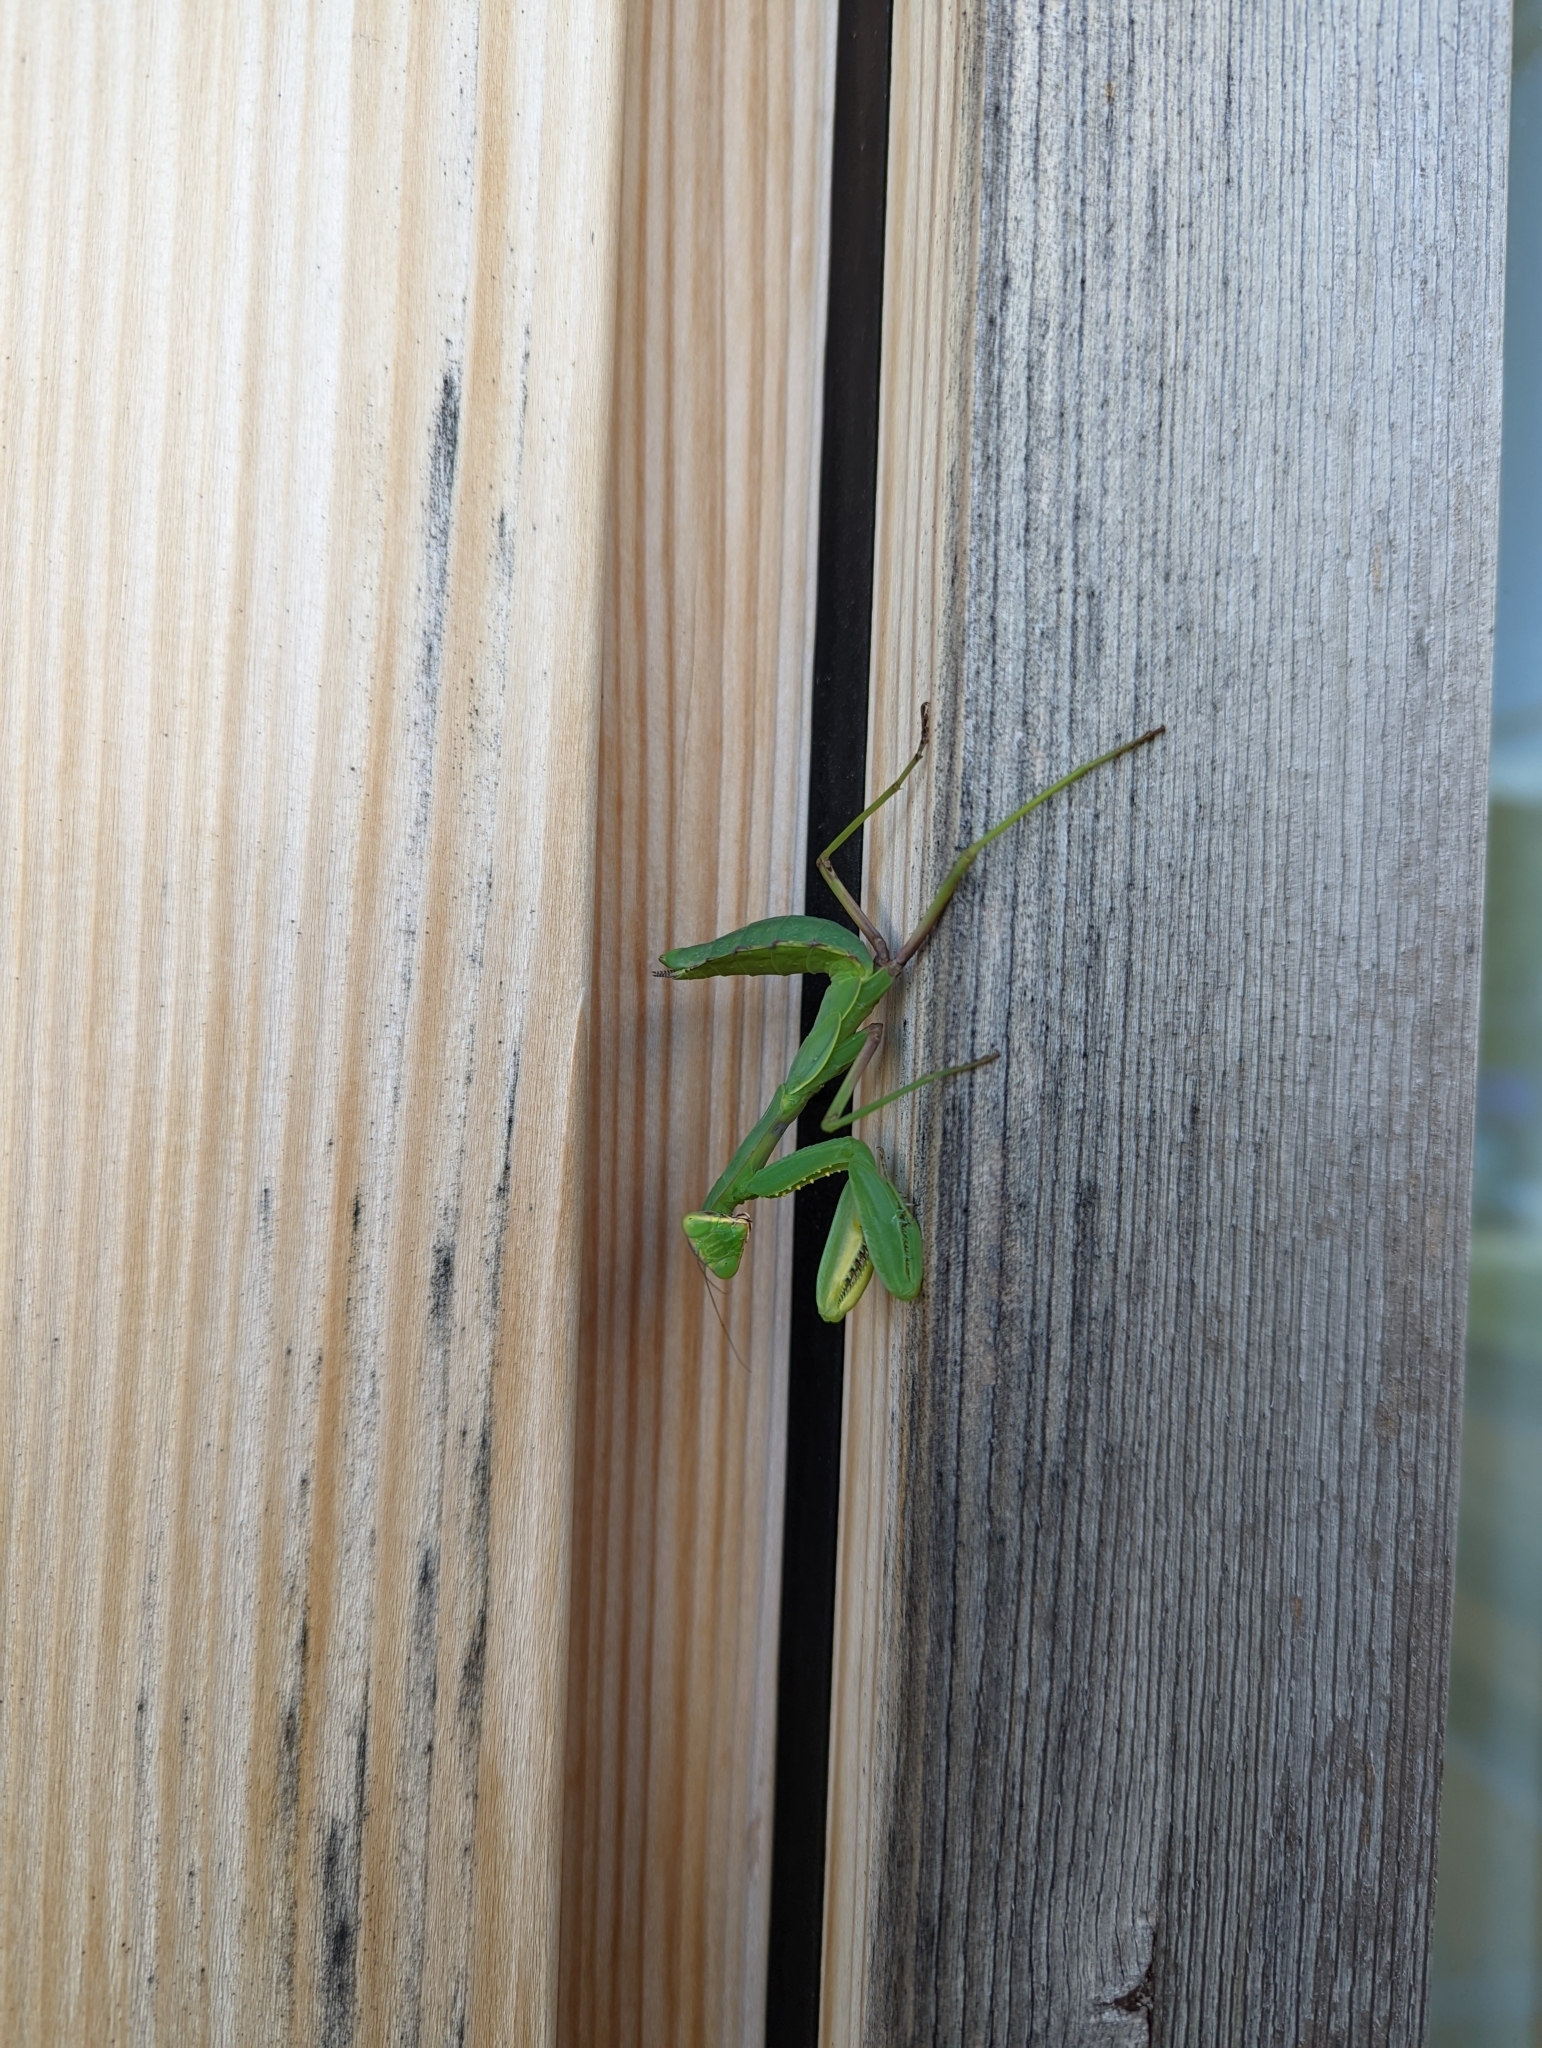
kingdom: Animalia
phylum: Arthropoda
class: Insecta
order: Mantodea
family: Mantidae
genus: Hierodula
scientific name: Hierodula transcaucasica
